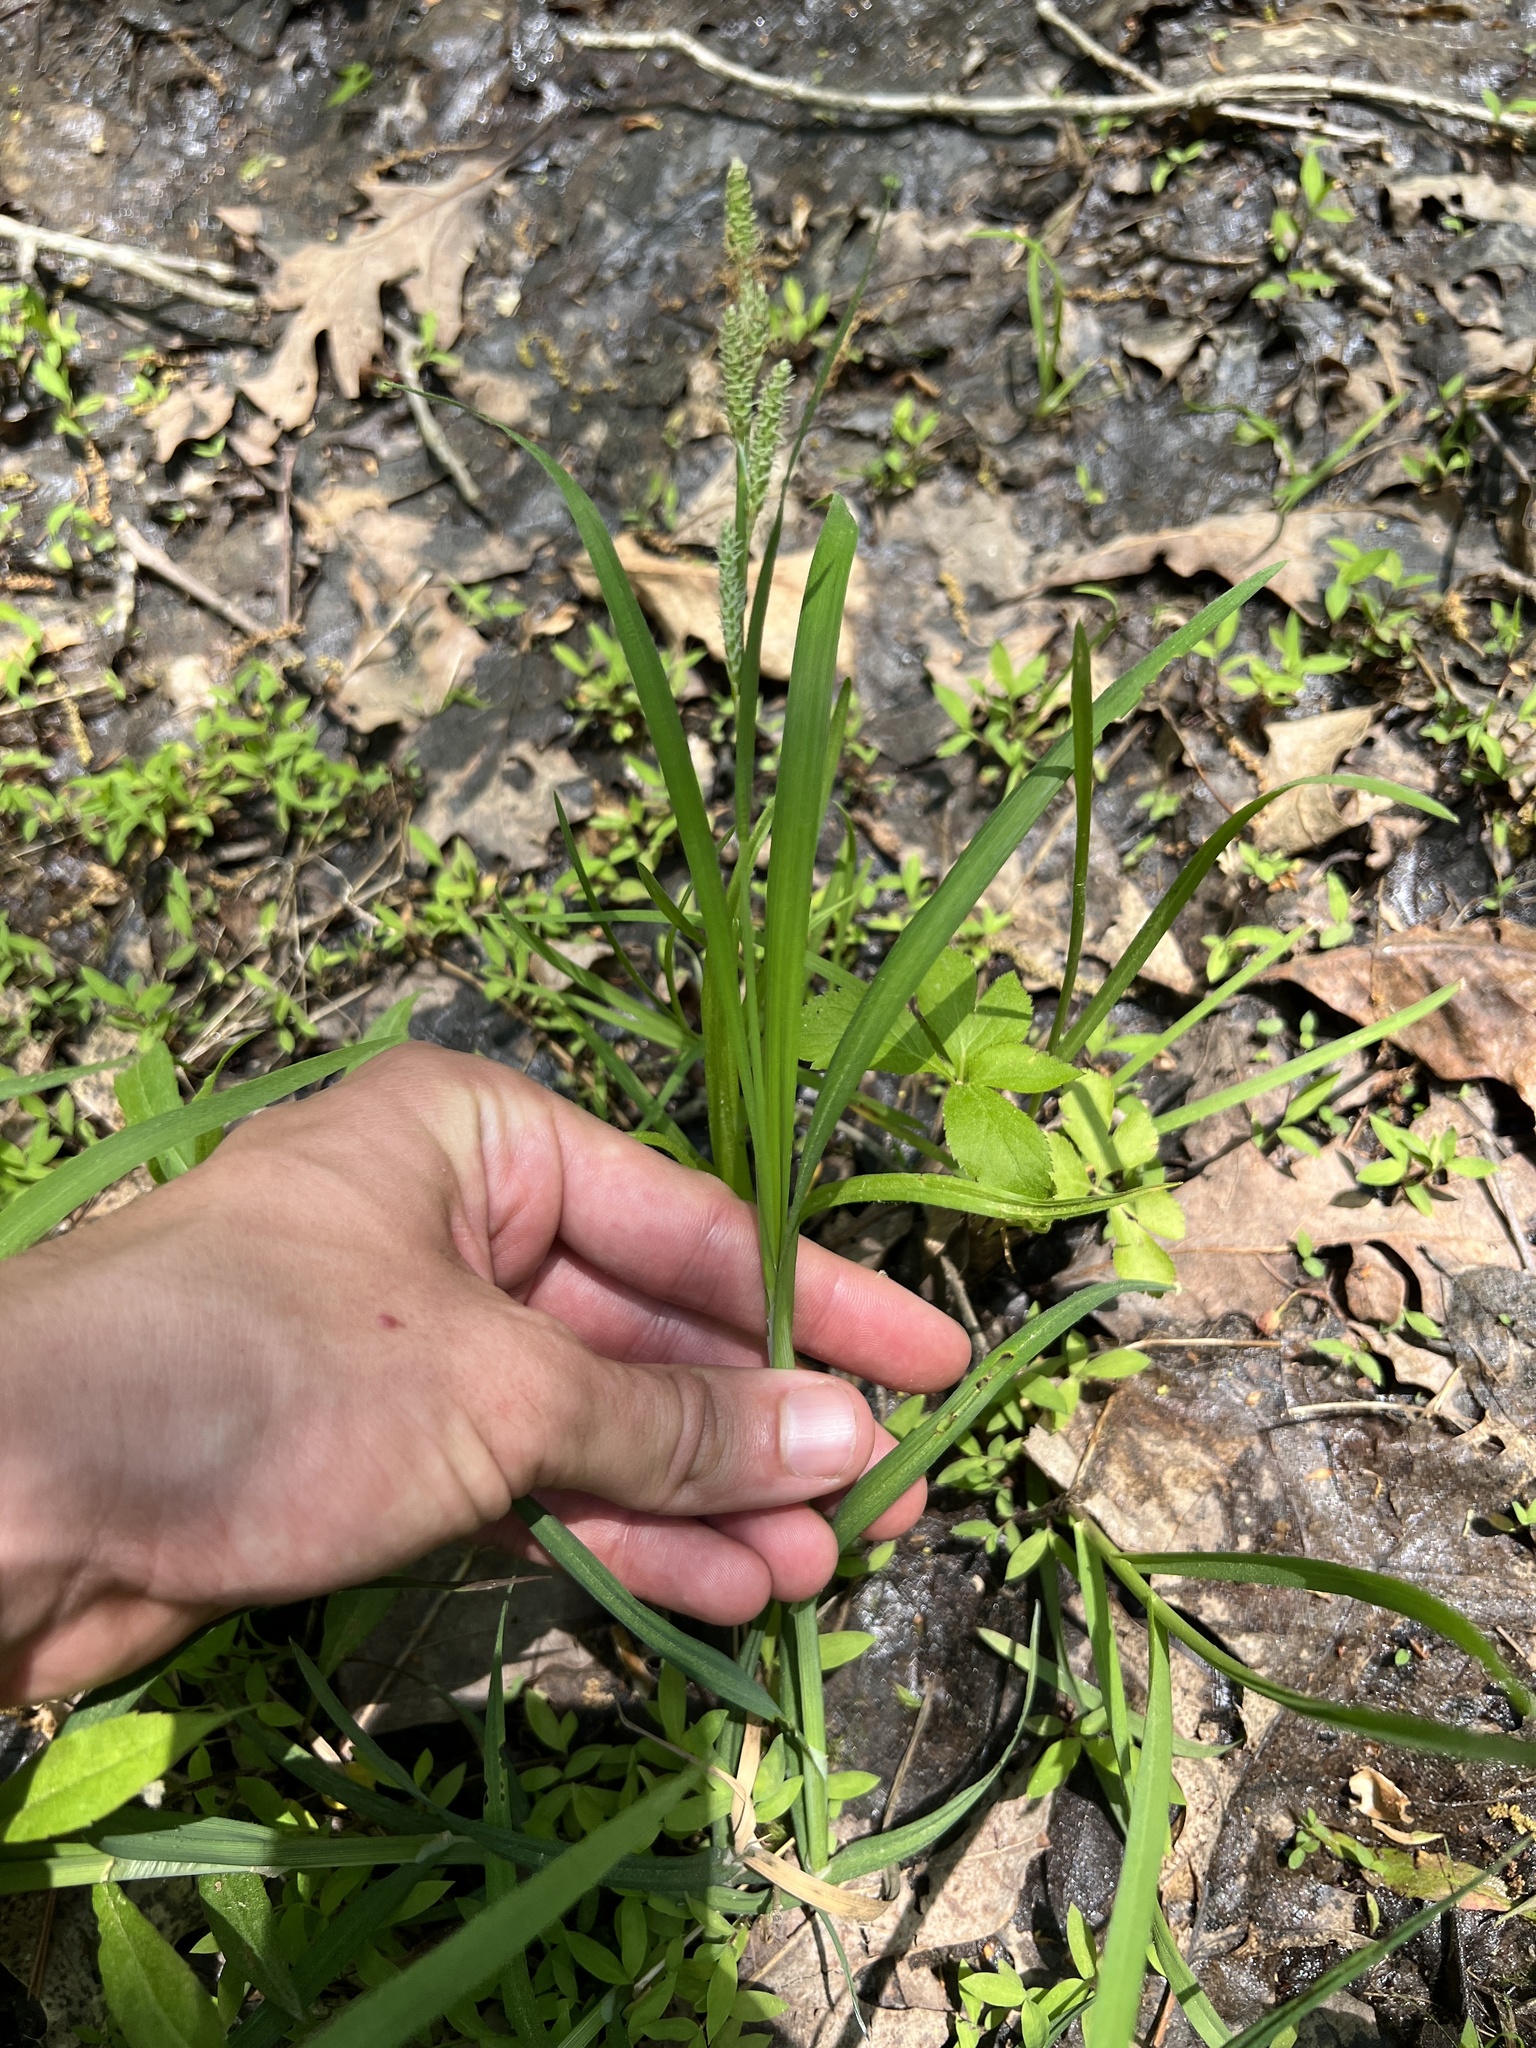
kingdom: Plantae
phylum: Tracheophyta
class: Liliopsida
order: Poales
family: Cyperaceae
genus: Carex
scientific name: Carex shortiana
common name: Short's sedge
